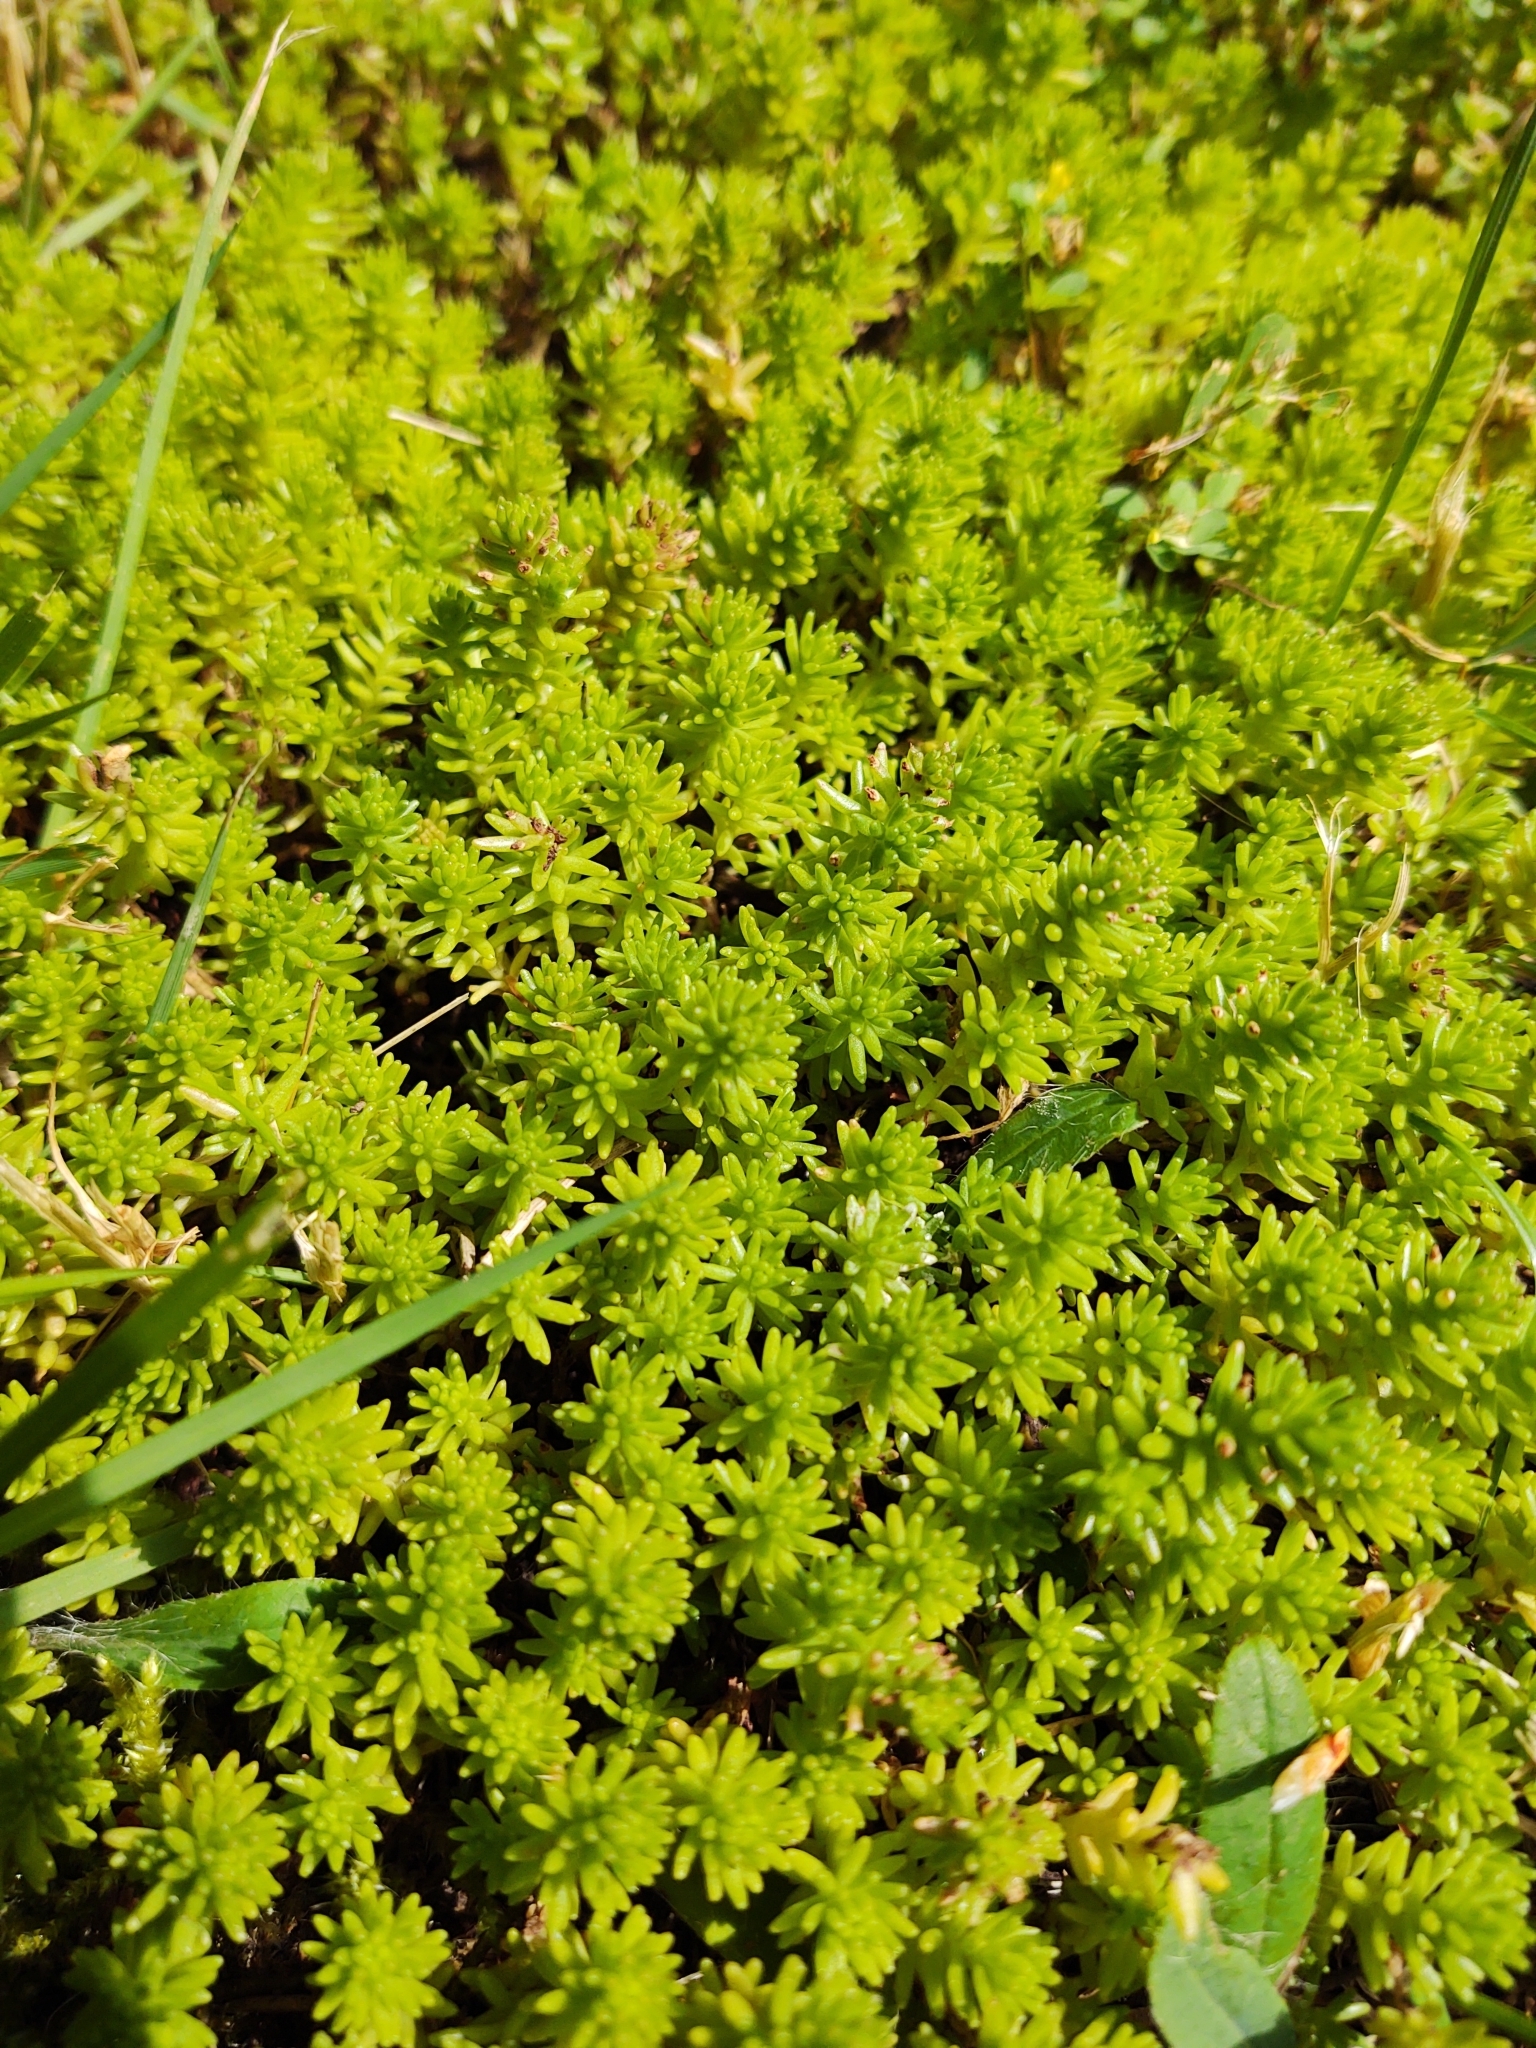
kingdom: Plantae
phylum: Tracheophyta
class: Magnoliopsida
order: Saxifragales
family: Crassulaceae
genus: Sedum
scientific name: Sedum sexangulare
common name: Tasteless stonecrop
